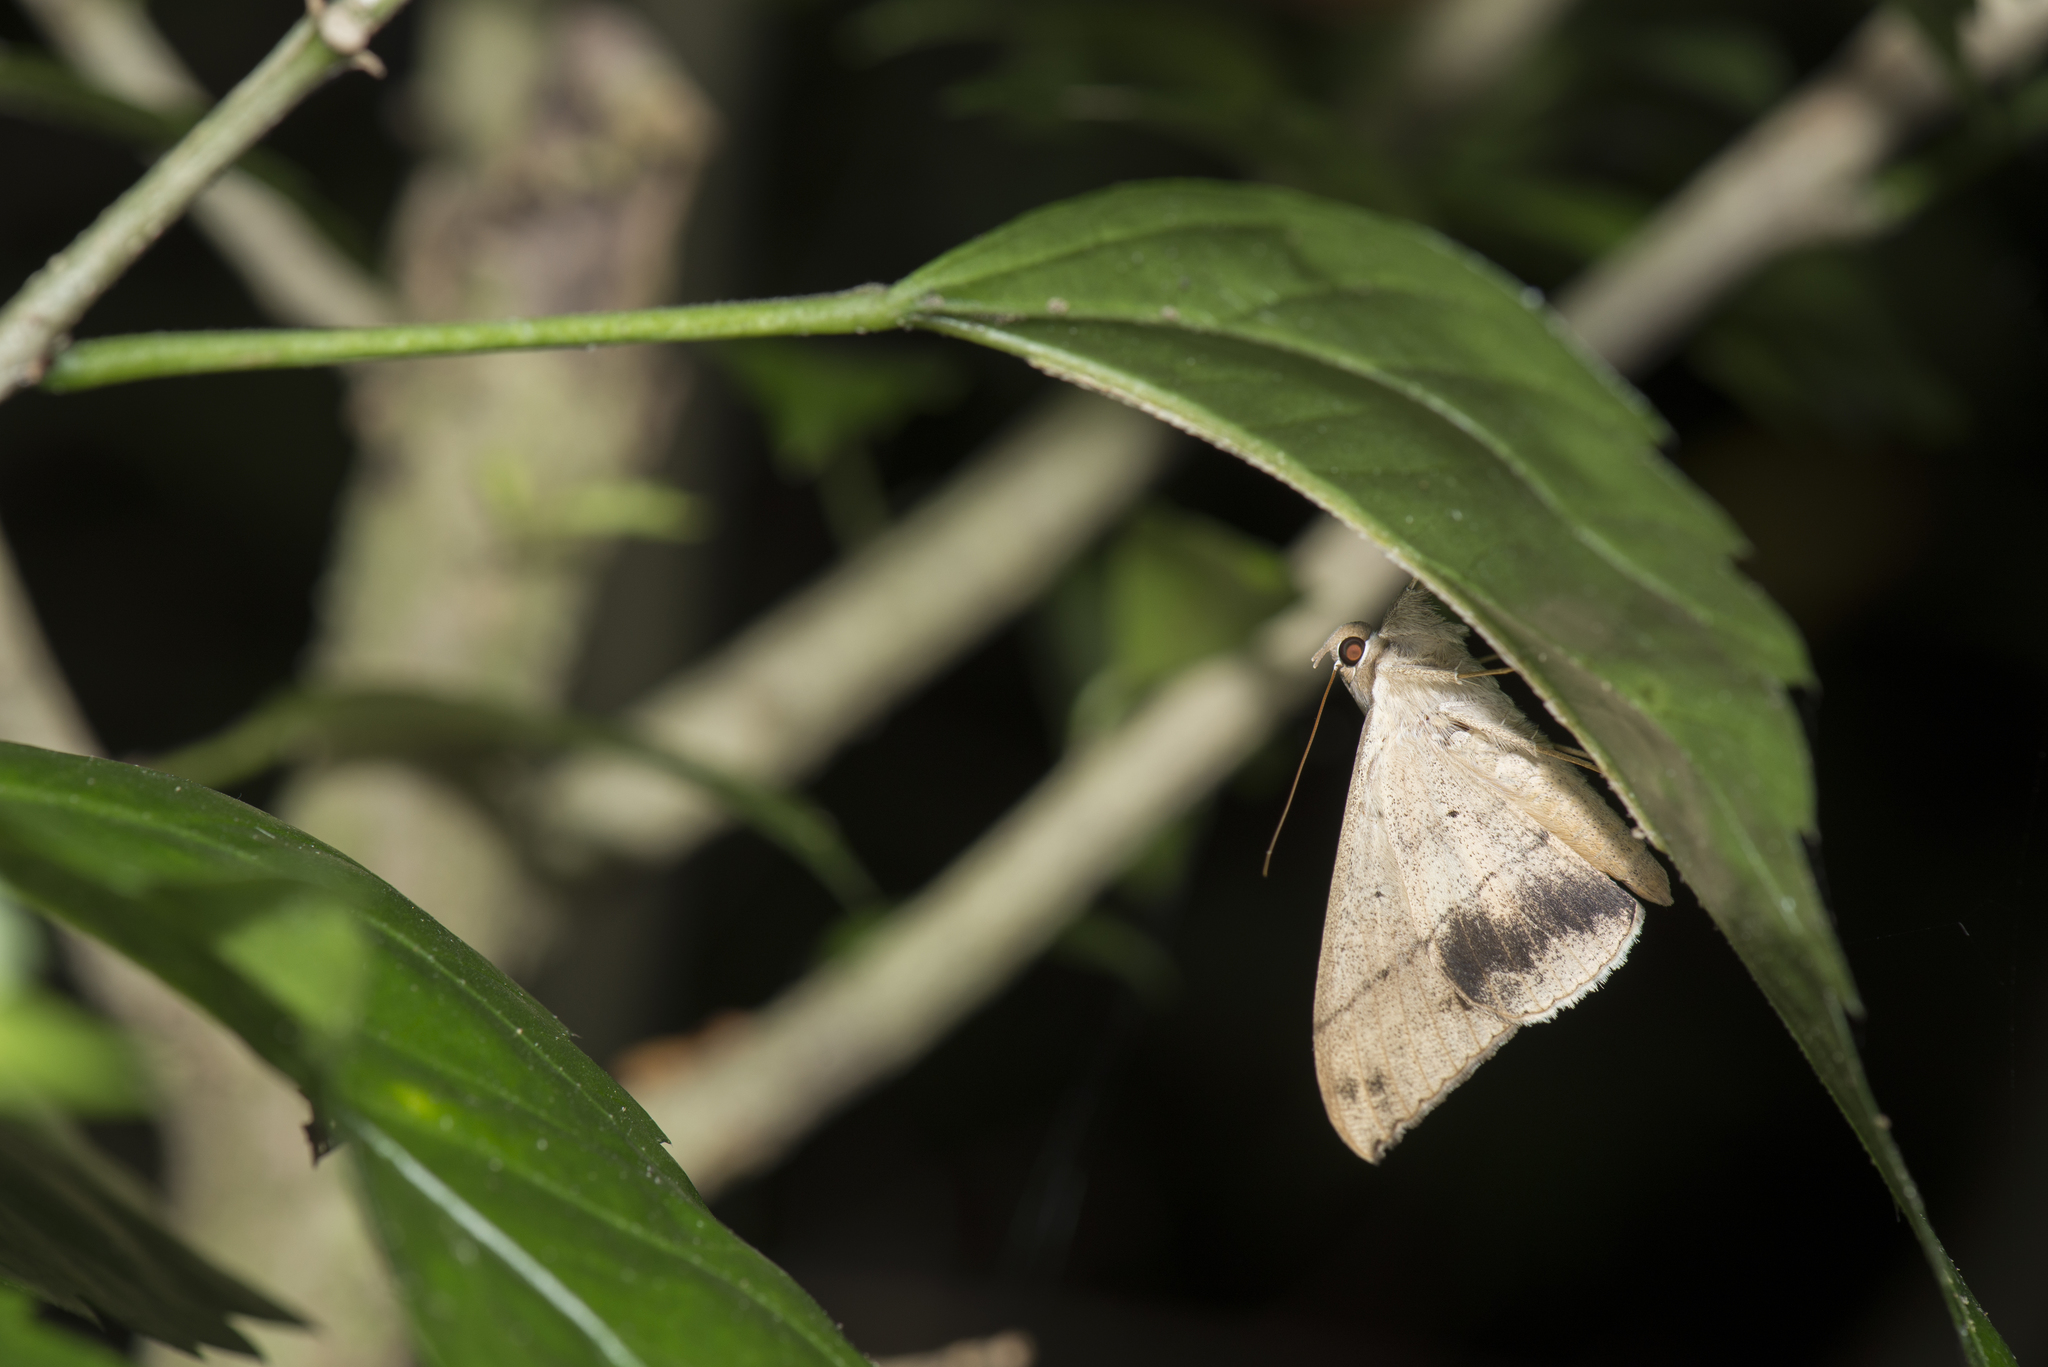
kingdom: Animalia
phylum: Arthropoda
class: Insecta
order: Lepidoptera
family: Erebidae
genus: Oxyodes
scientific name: Oxyodes scrobiculata
